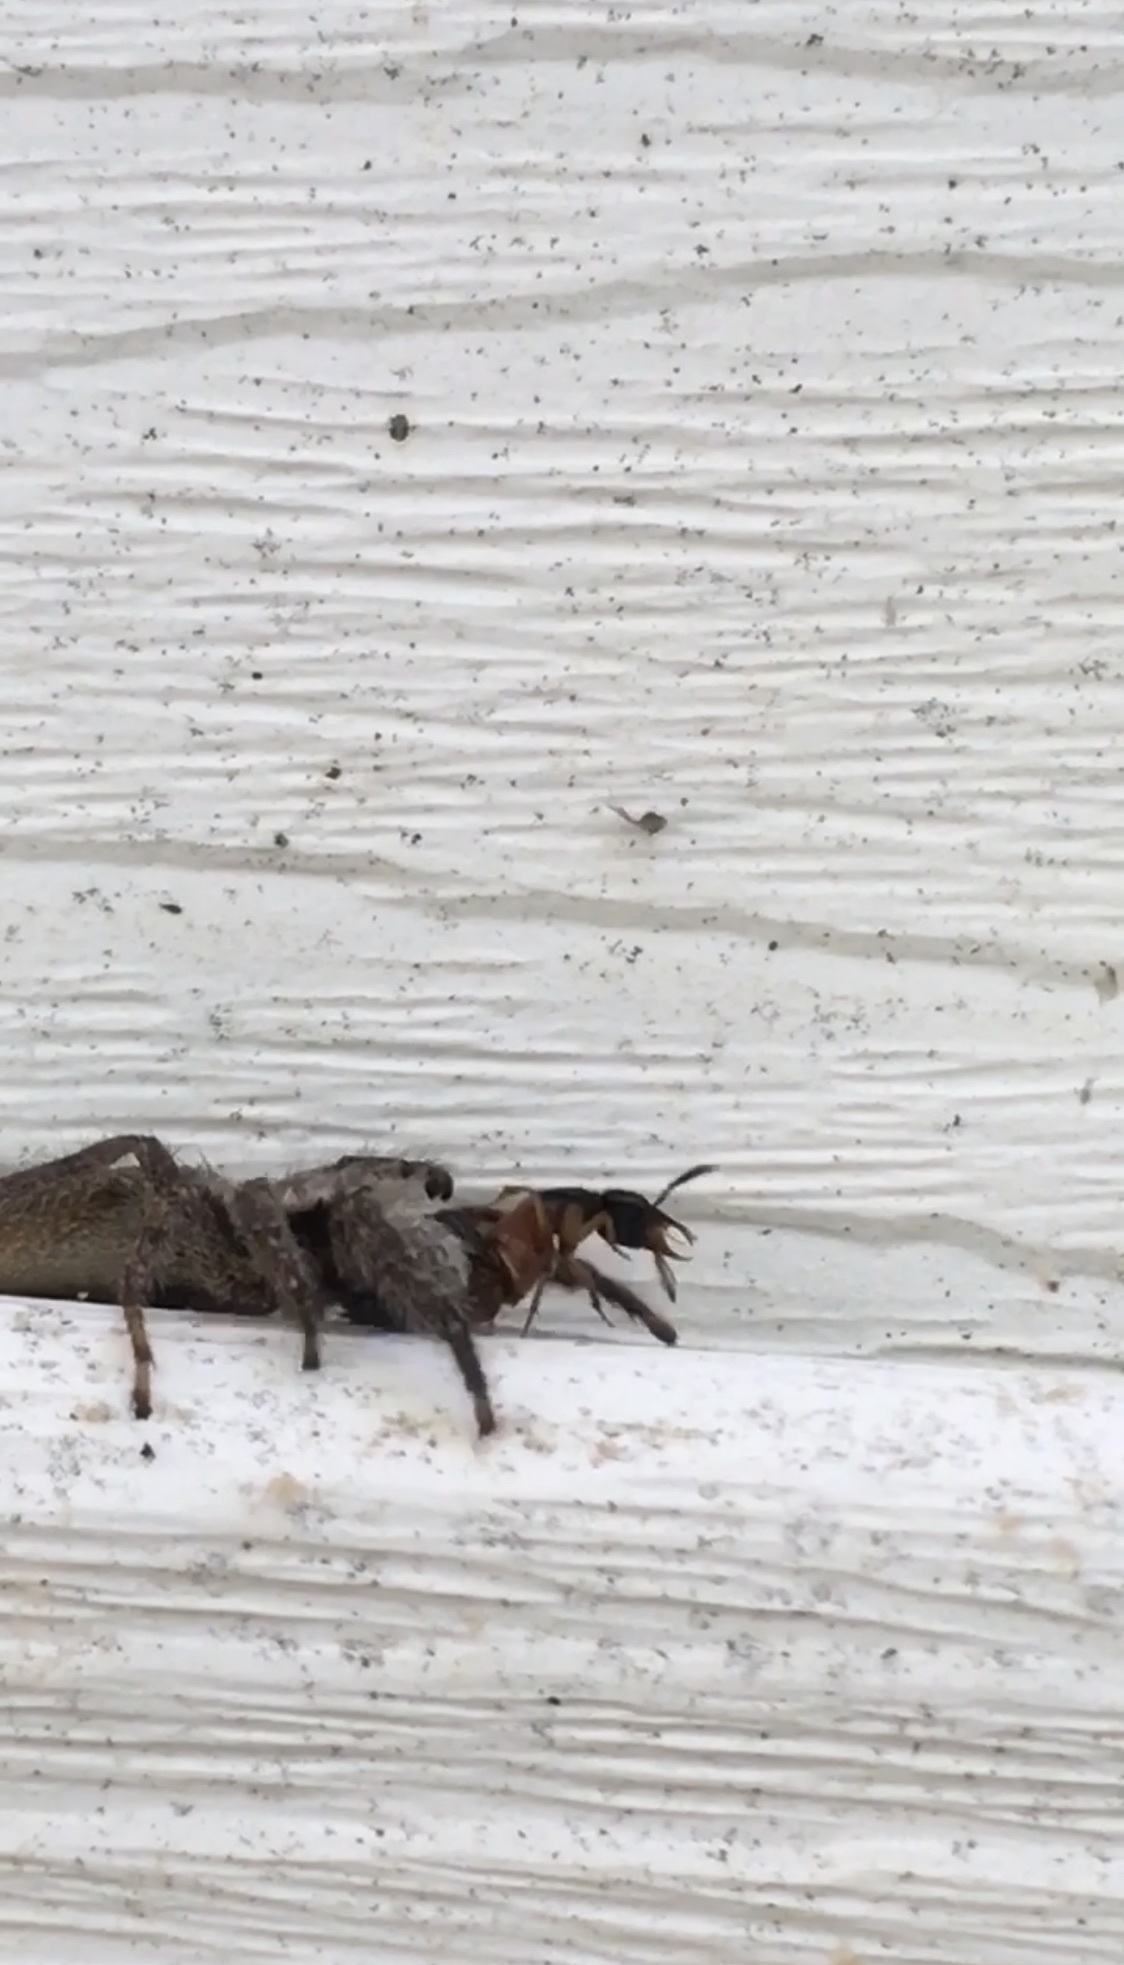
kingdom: Animalia
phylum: Arthropoda
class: Arachnida
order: Araneae
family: Salticidae
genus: Platycryptus
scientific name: Platycryptus undatus
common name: Tan jumping spider
